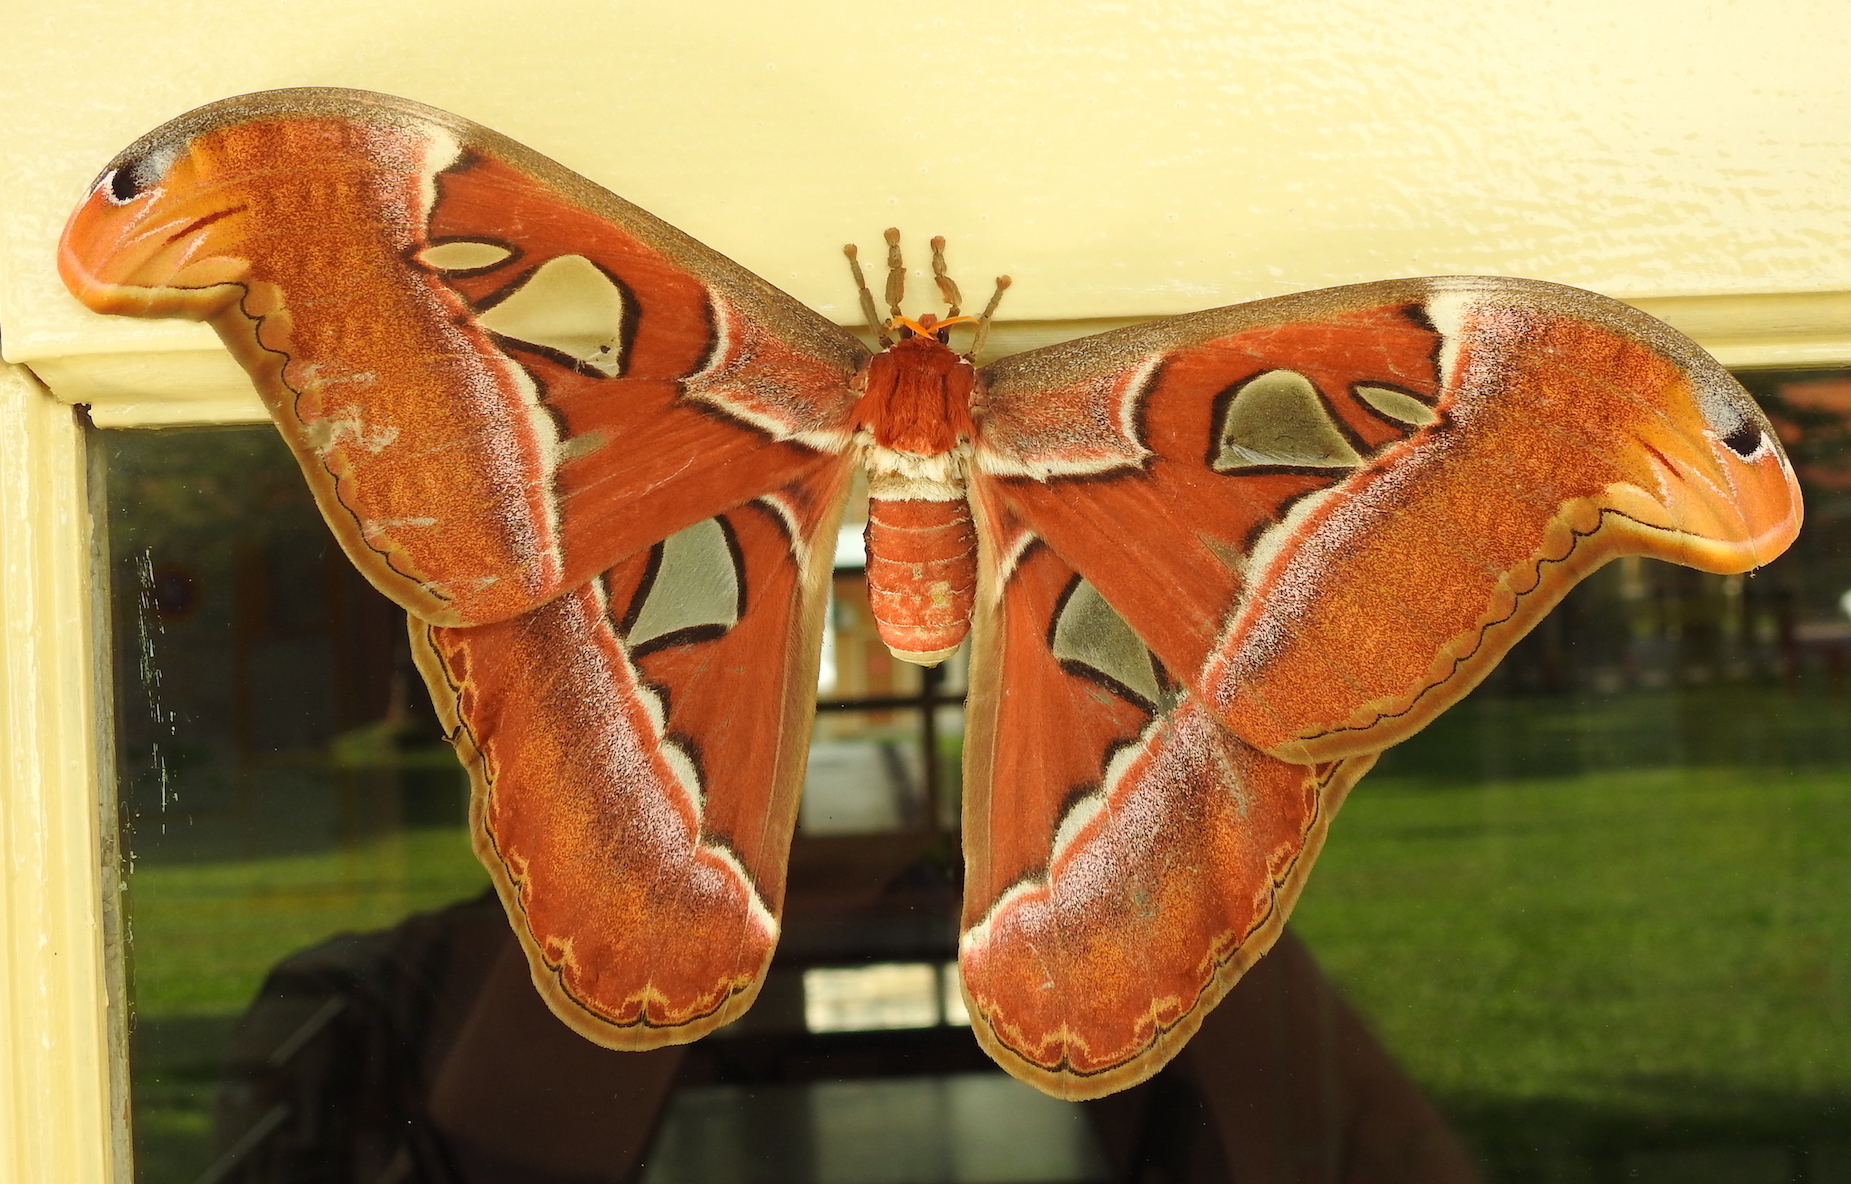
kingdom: Animalia
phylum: Arthropoda
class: Insecta
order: Lepidoptera
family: Saturniidae
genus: Attacus
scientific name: Attacus atlas
